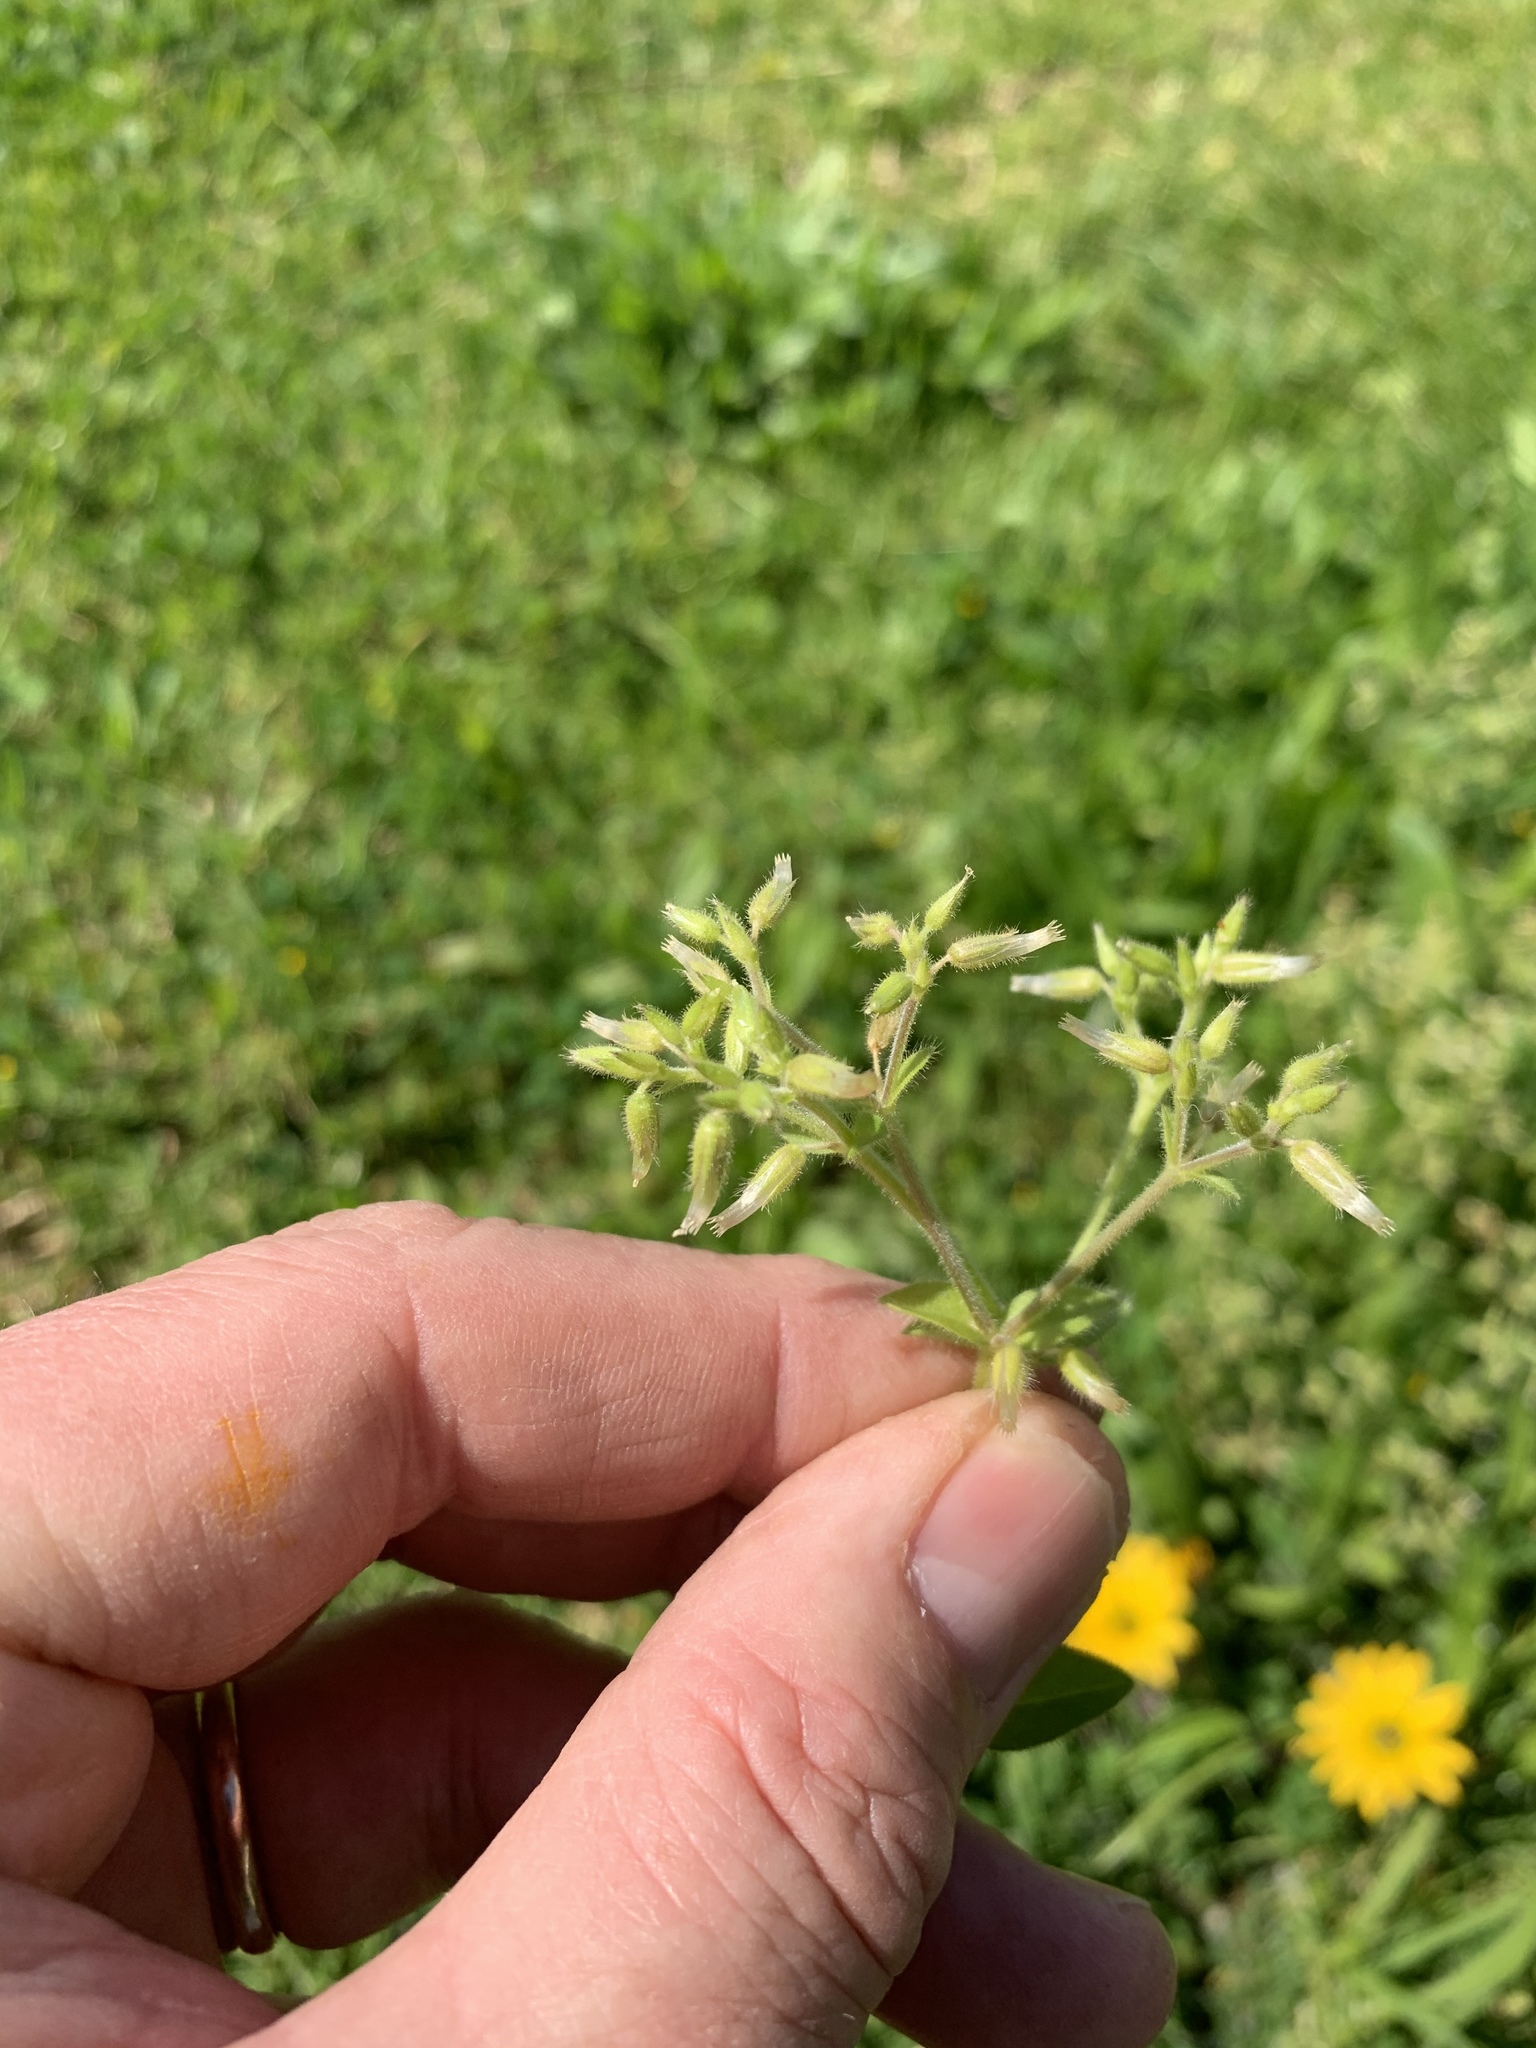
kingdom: Plantae
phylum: Tracheophyta
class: Magnoliopsida
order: Caryophyllales
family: Caryophyllaceae
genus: Cerastium
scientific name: Cerastium glomeratum
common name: Sticky chickweed
